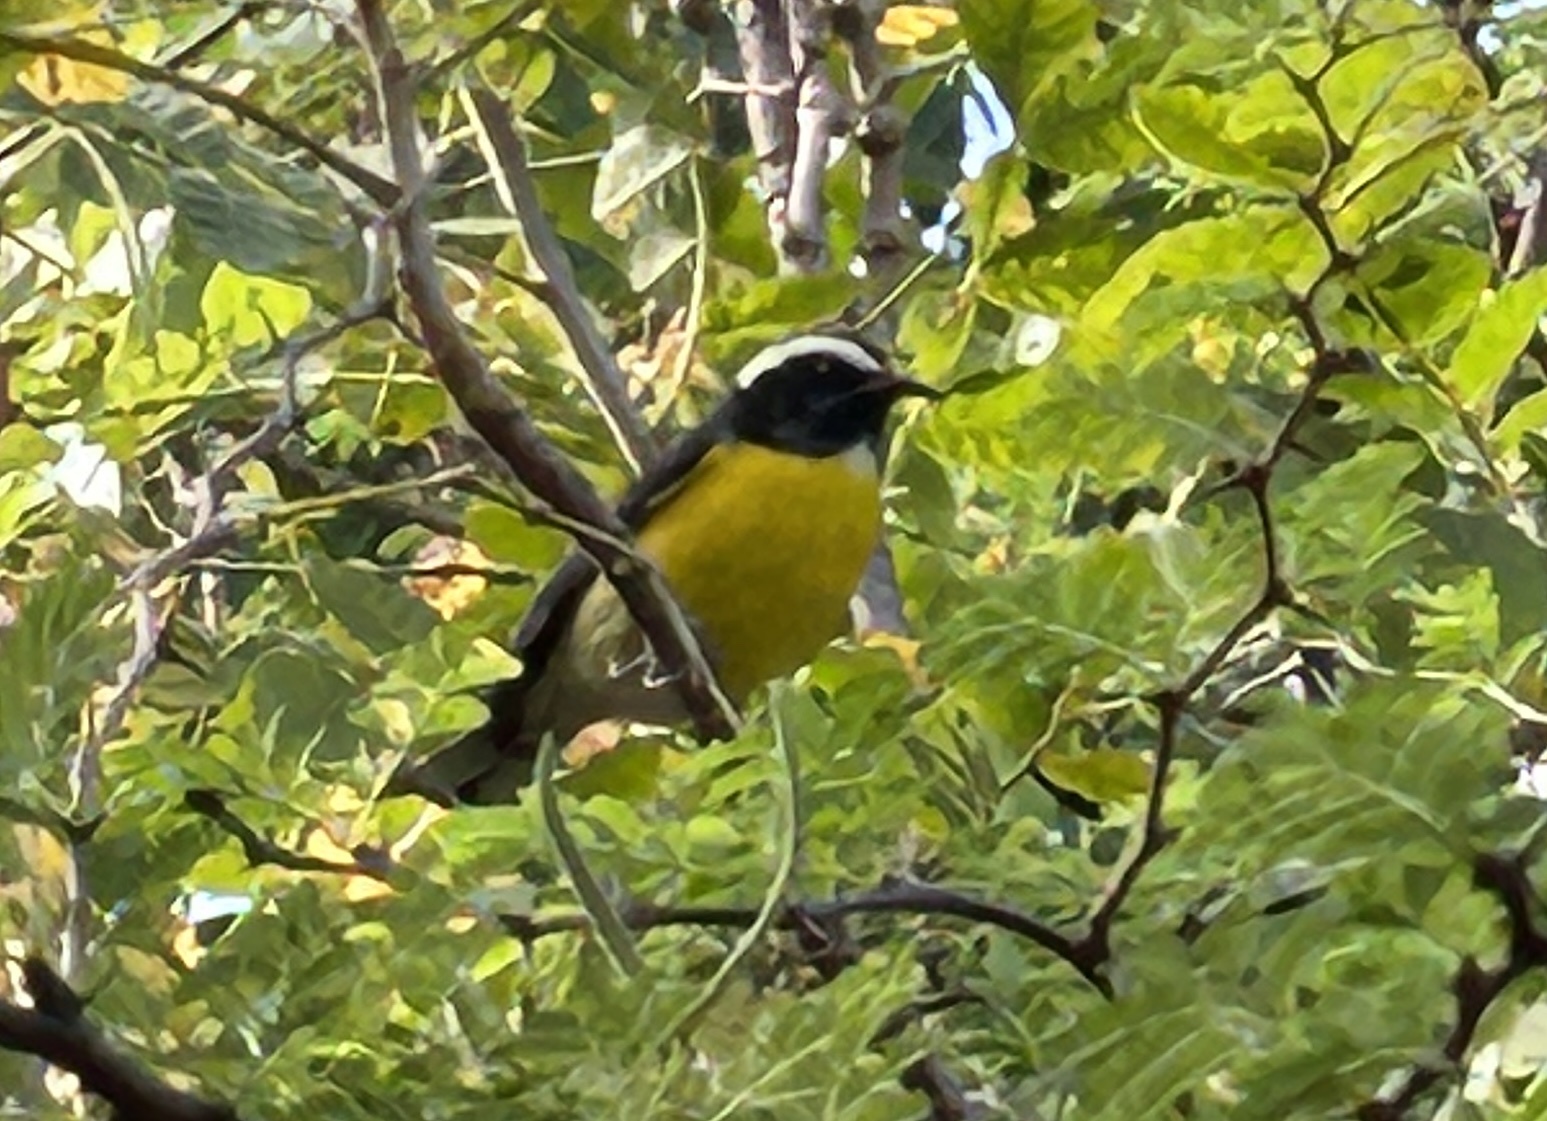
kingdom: Animalia
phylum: Chordata
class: Aves
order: Passeriformes
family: Thraupidae
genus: Coereba
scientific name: Coereba flaveola
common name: Bananaquit
